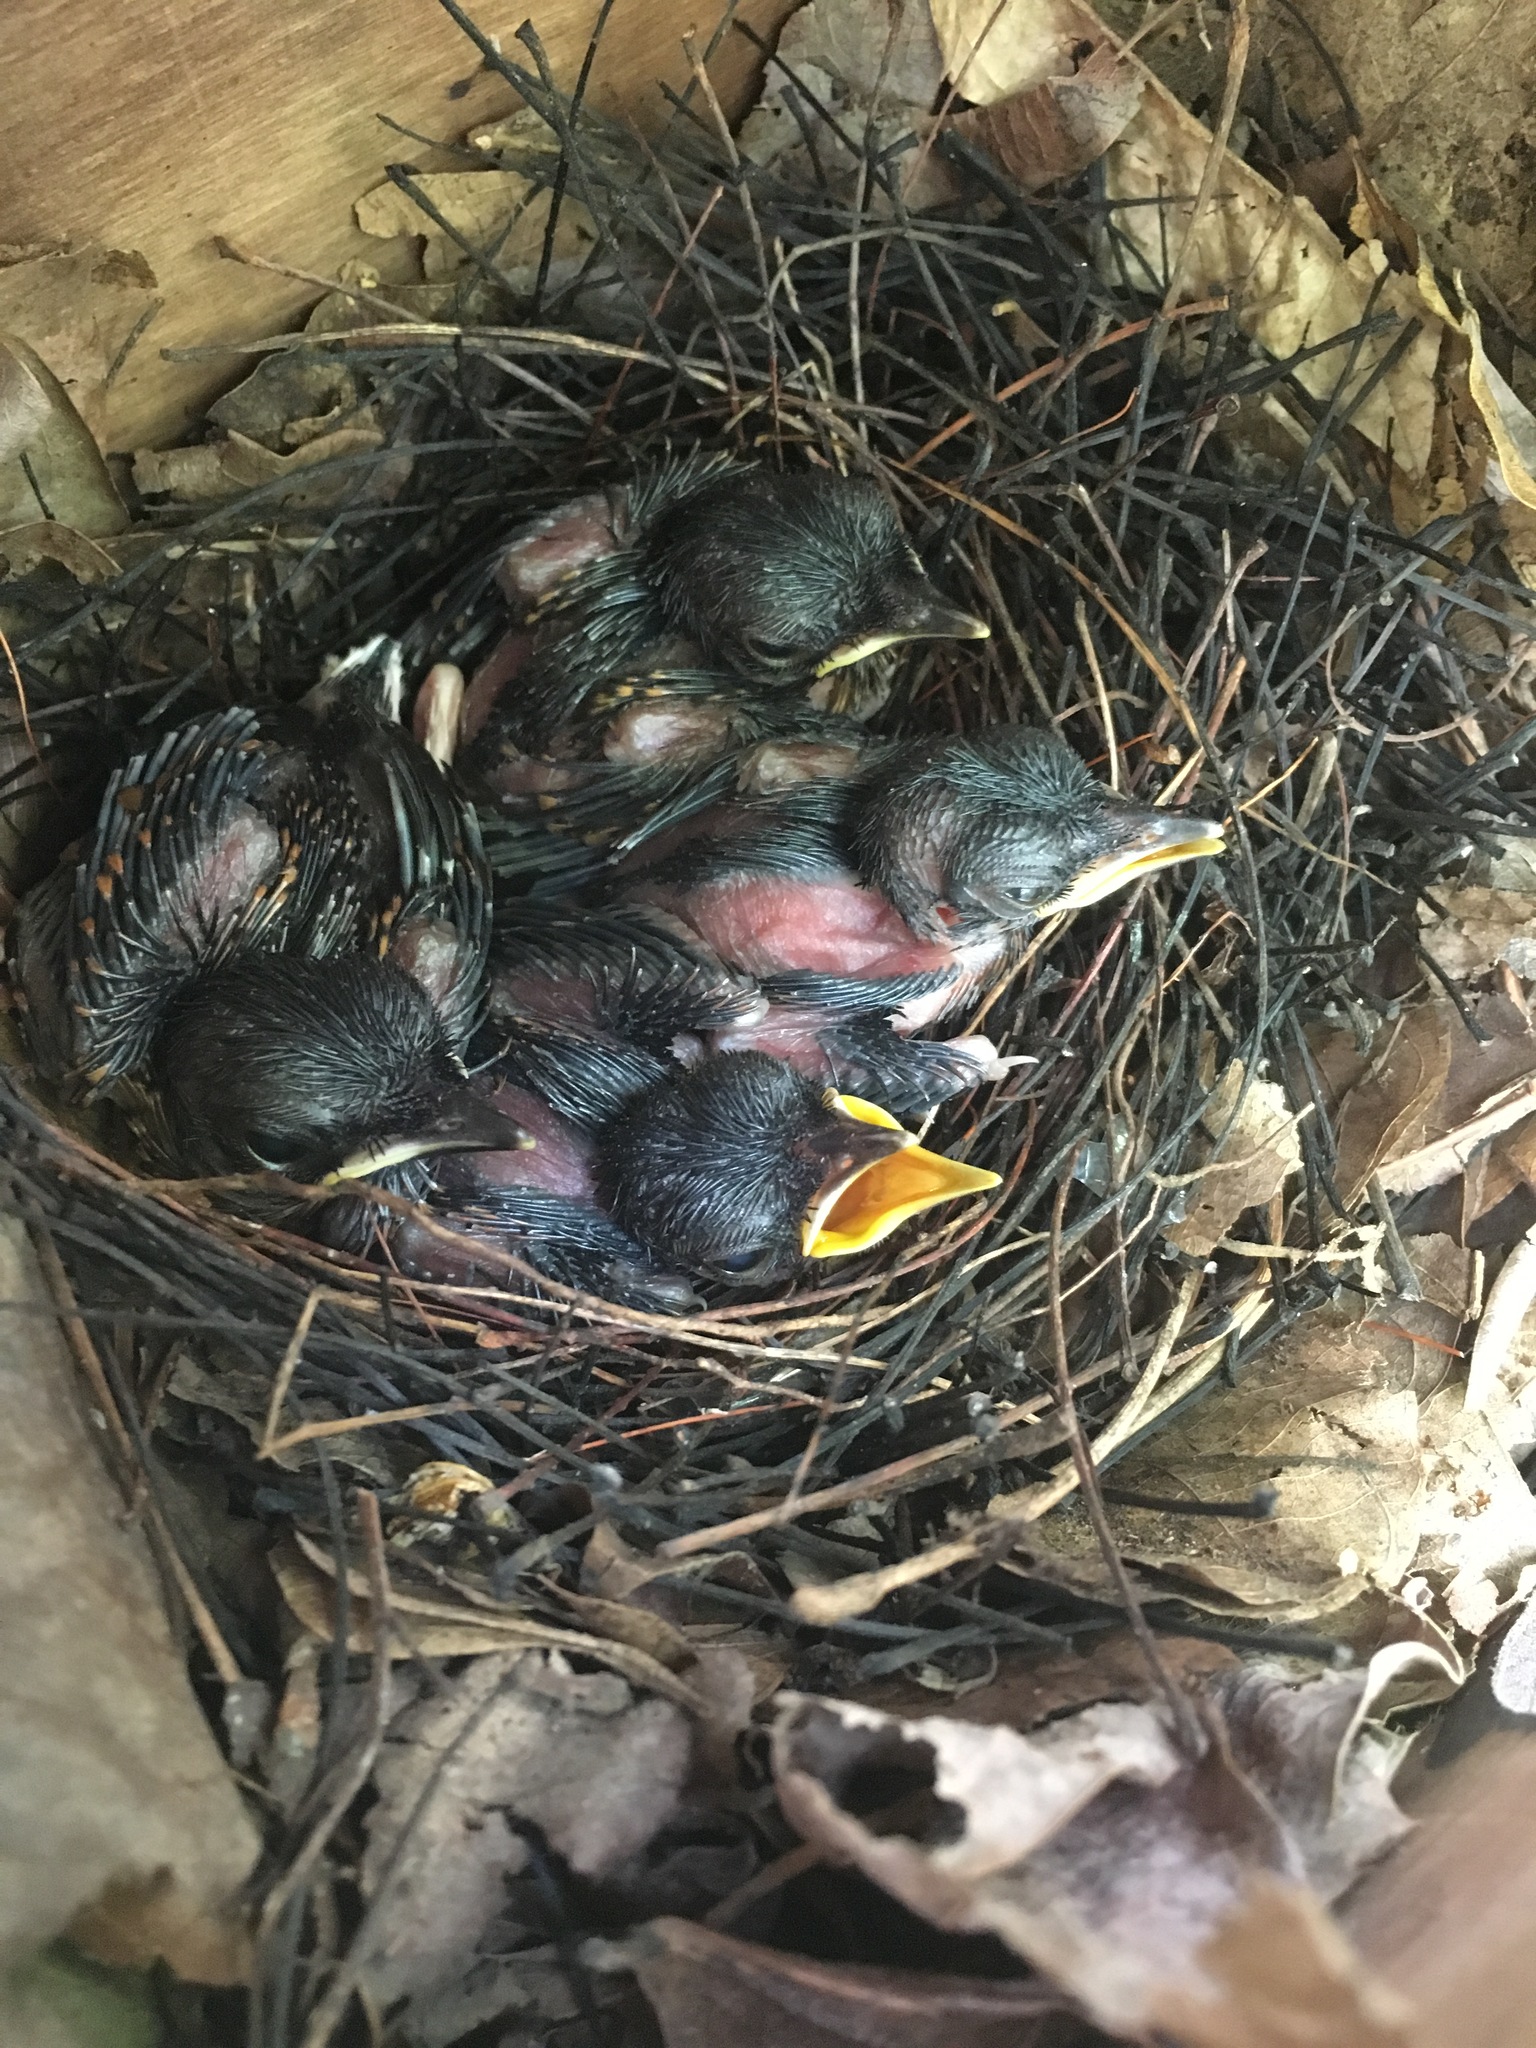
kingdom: Animalia
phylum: Chordata
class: Aves
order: Passeriformes
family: Muscicapidae
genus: Copsychus
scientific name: Copsychus malabaricus
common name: White-rumped shama
